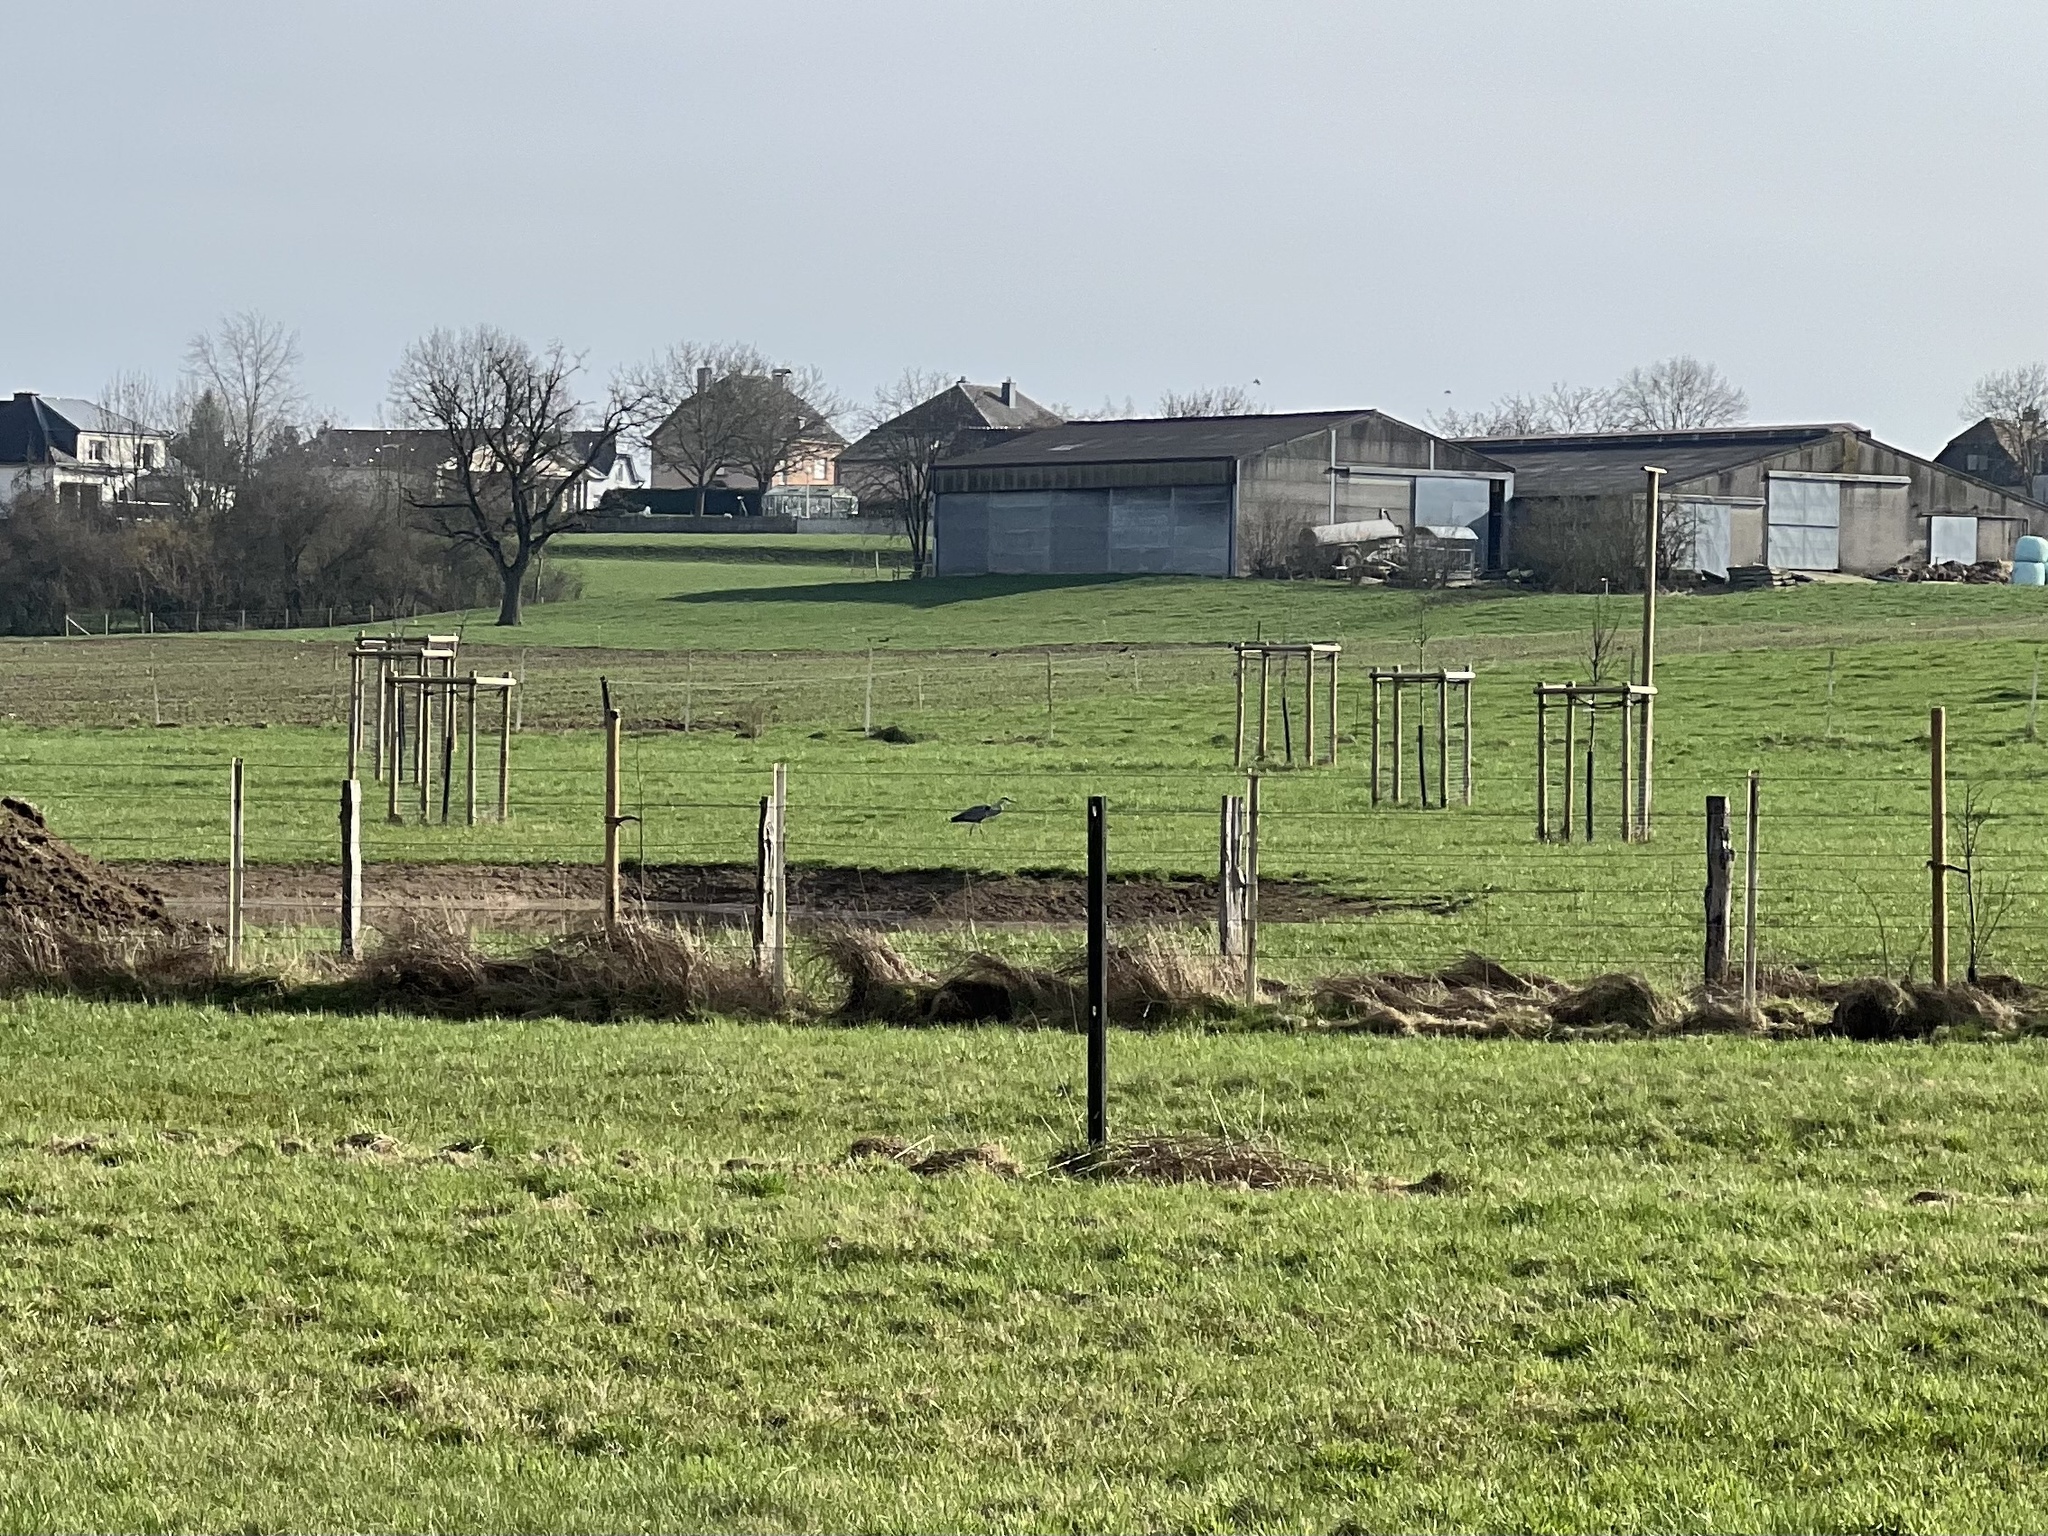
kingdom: Animalia
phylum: Chordata
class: Aves
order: Pelecaniformes
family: Ardeidae
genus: Ardea
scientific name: Ardea cinerea
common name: Grey heron
